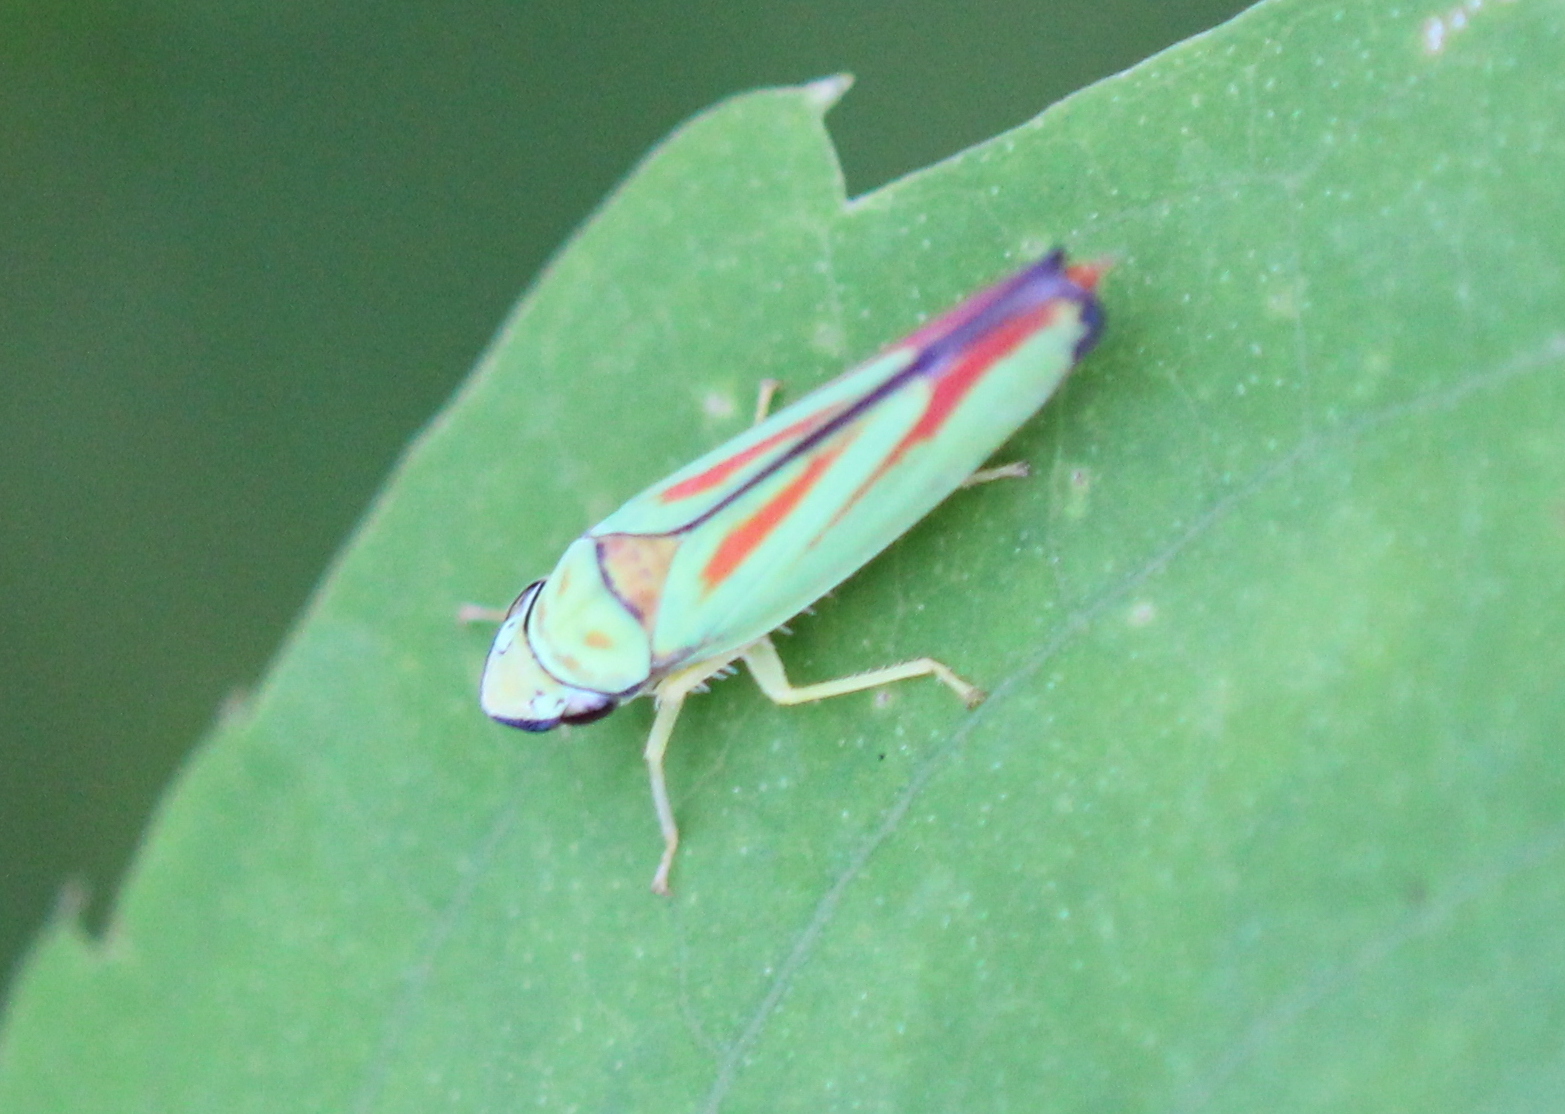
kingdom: Animalia
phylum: Arthropoda
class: Insecta
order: Hemiptera
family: Cicadellidae
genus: Graphocephala
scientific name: Graphocephala fennahi
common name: Rhododendron leafhopper
